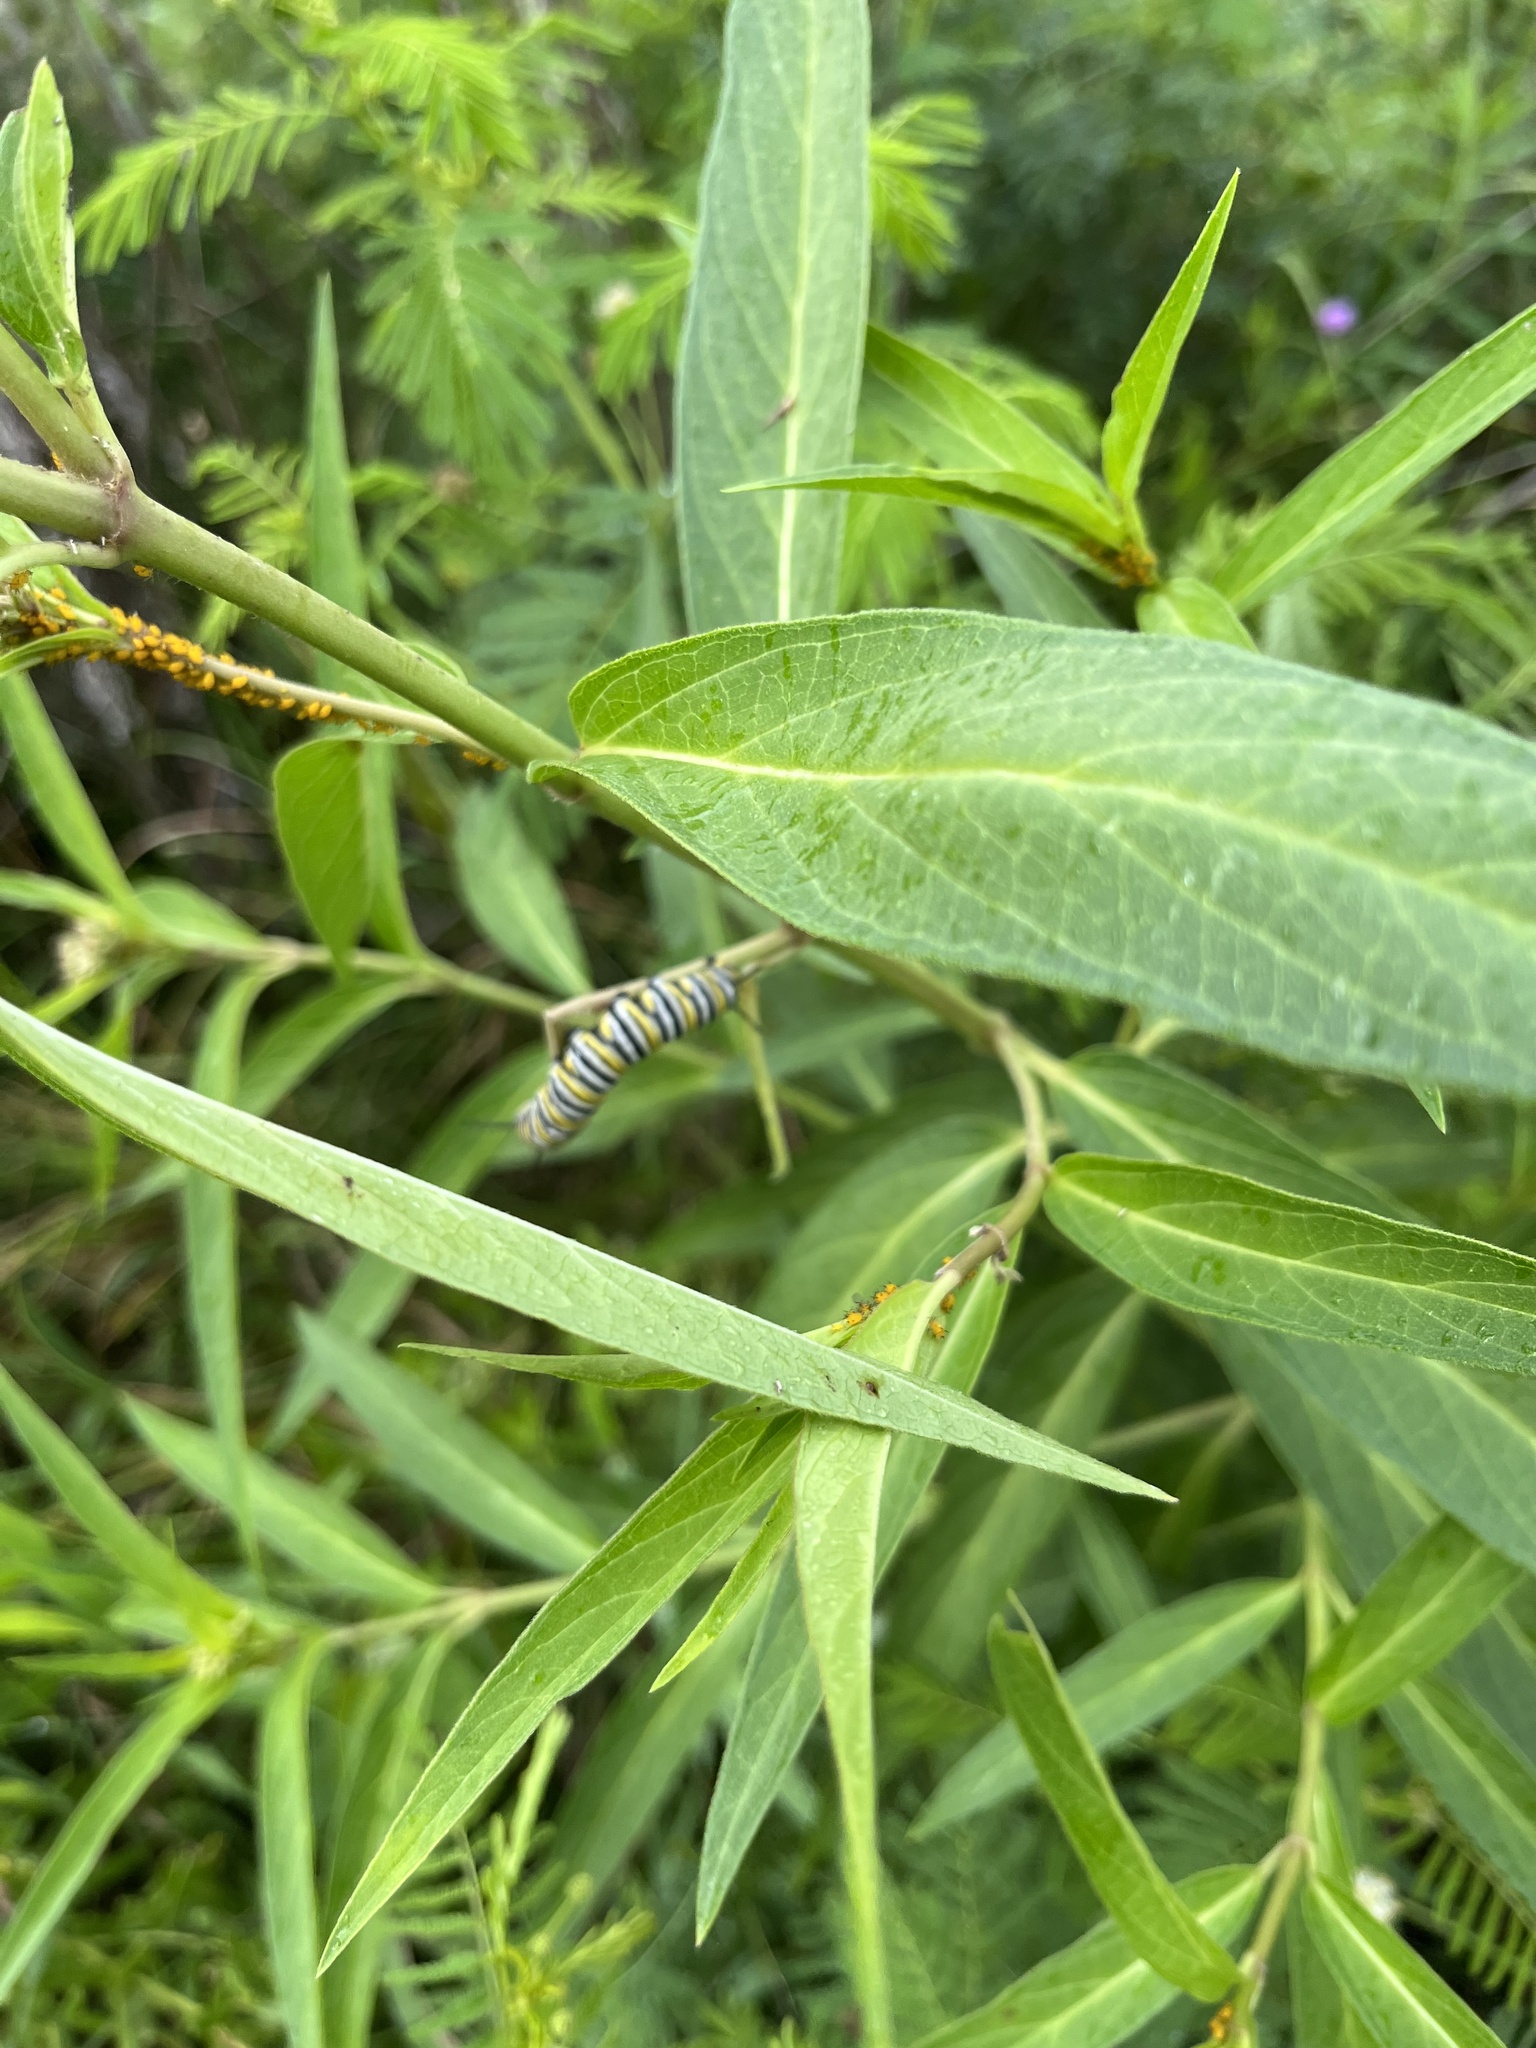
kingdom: Animalia
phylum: Arthropoda
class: Insecta
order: Lepidoptera
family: Nymphalidae
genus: Danaus
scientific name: Danaus plexippus
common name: Monarch
